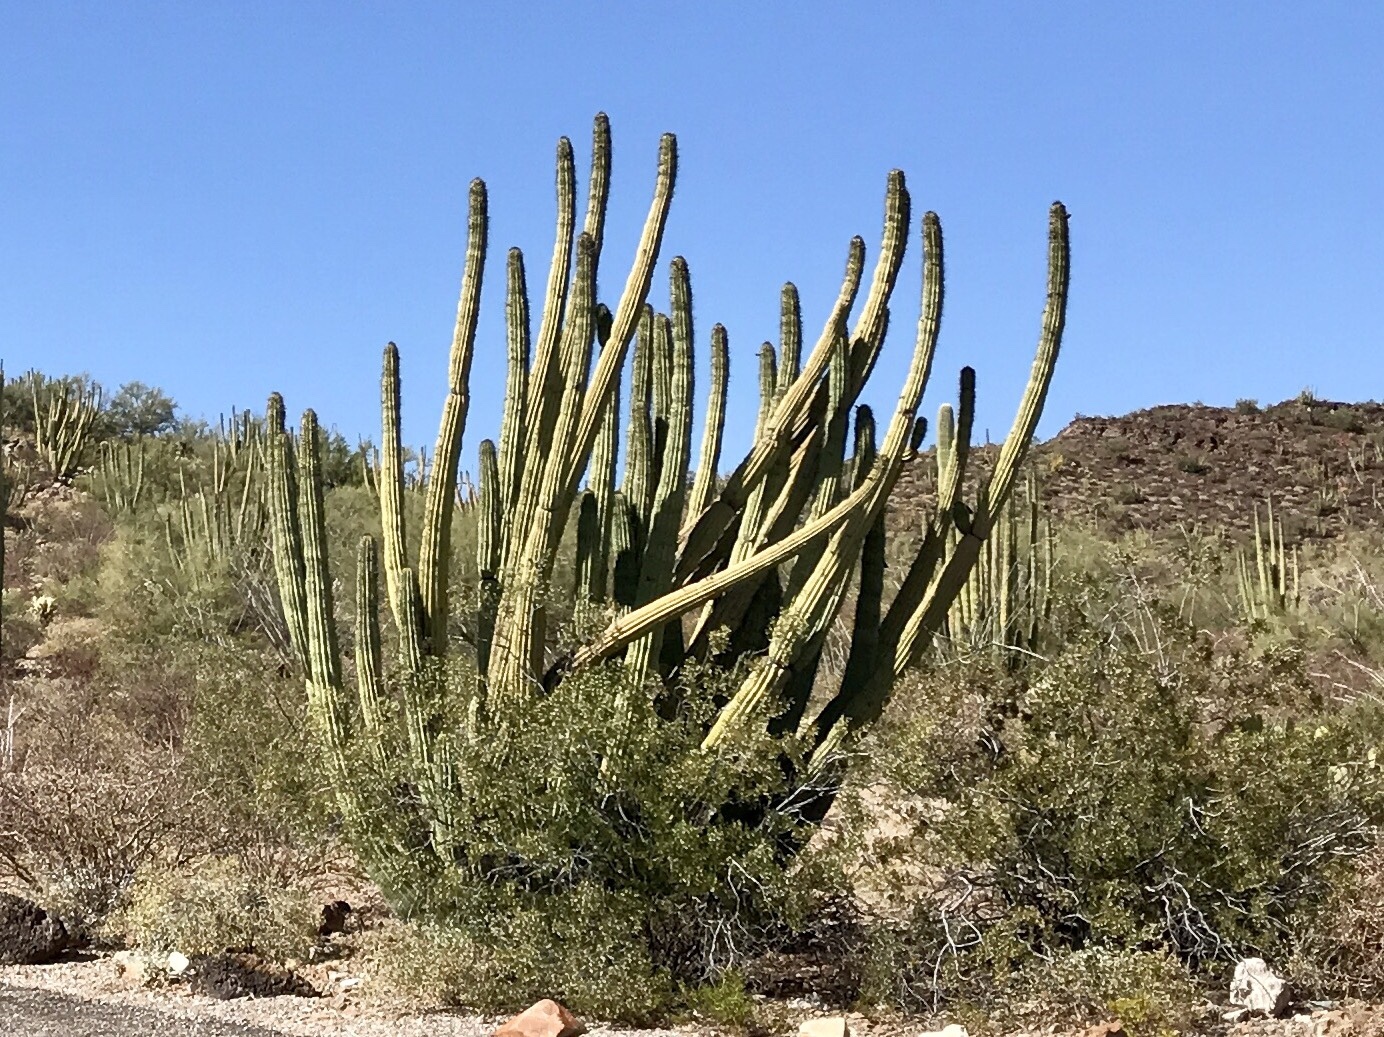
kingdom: Plantae
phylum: Tracheophyta
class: Magnoliopsida
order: Caryophyllales
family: Cactaceae
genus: Stenocereus
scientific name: Stenocereus thurberi
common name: Organ pipe cactus
